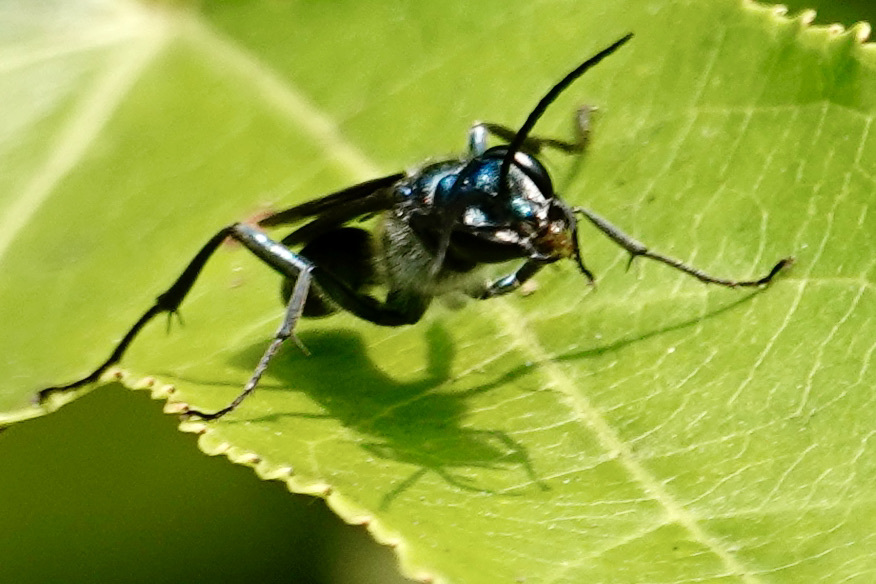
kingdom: Animalia
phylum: Arthropoda
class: Insecta
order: Hymenoptera
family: Sphecidae
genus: Chalybion
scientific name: Chalybion zimmermanni
